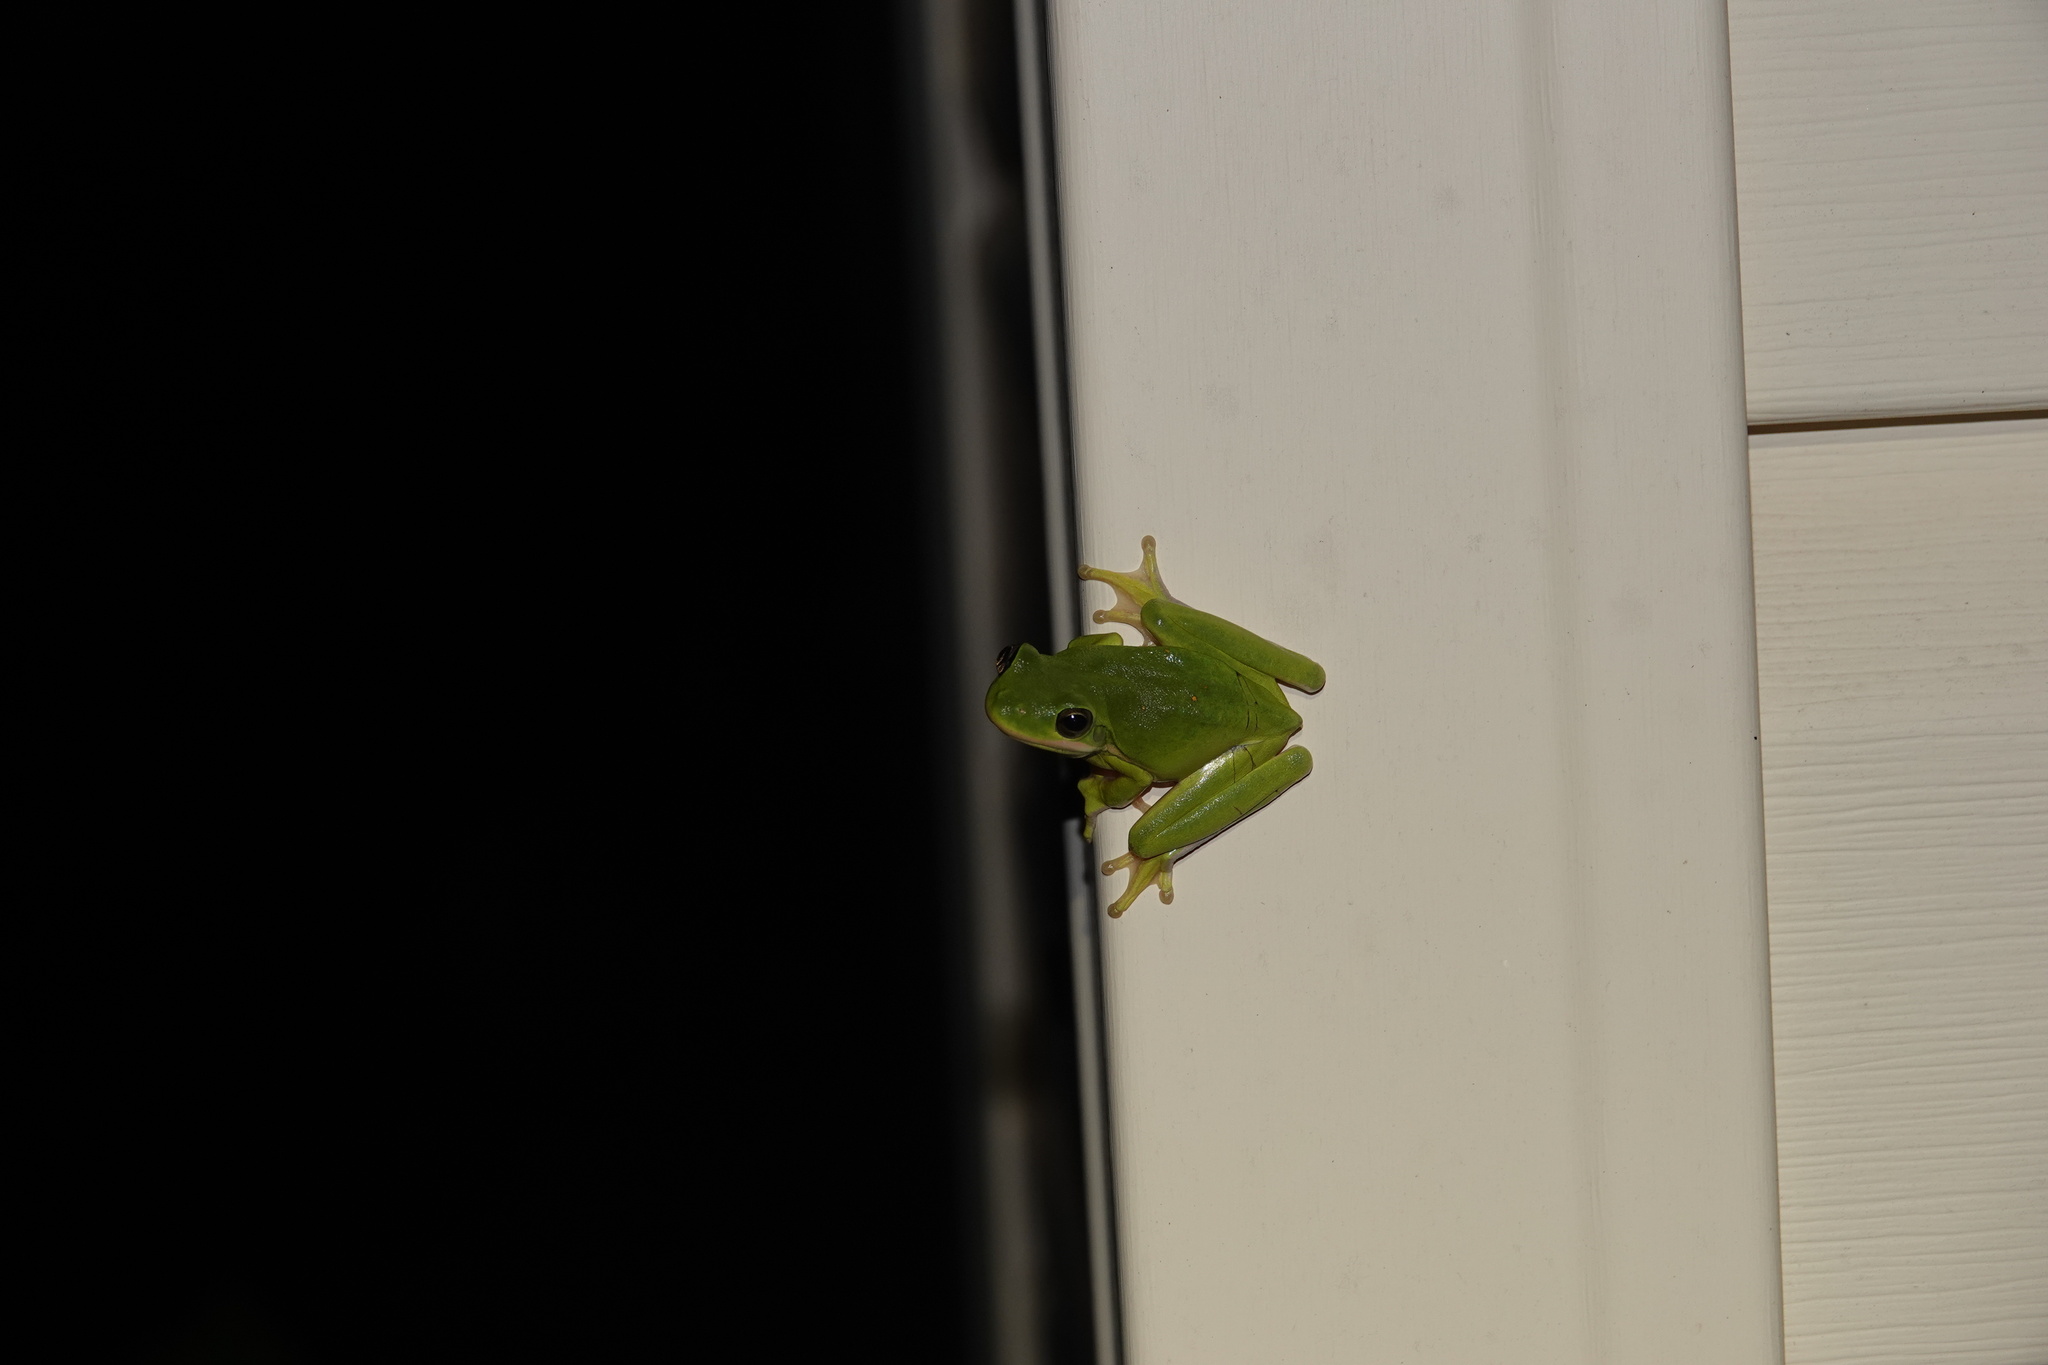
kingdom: Animalia
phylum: Chordata
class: Amphibia
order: Anura
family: Hylidae
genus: Dryophytes
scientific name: Dryophytes cinereus
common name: Green treefrog
